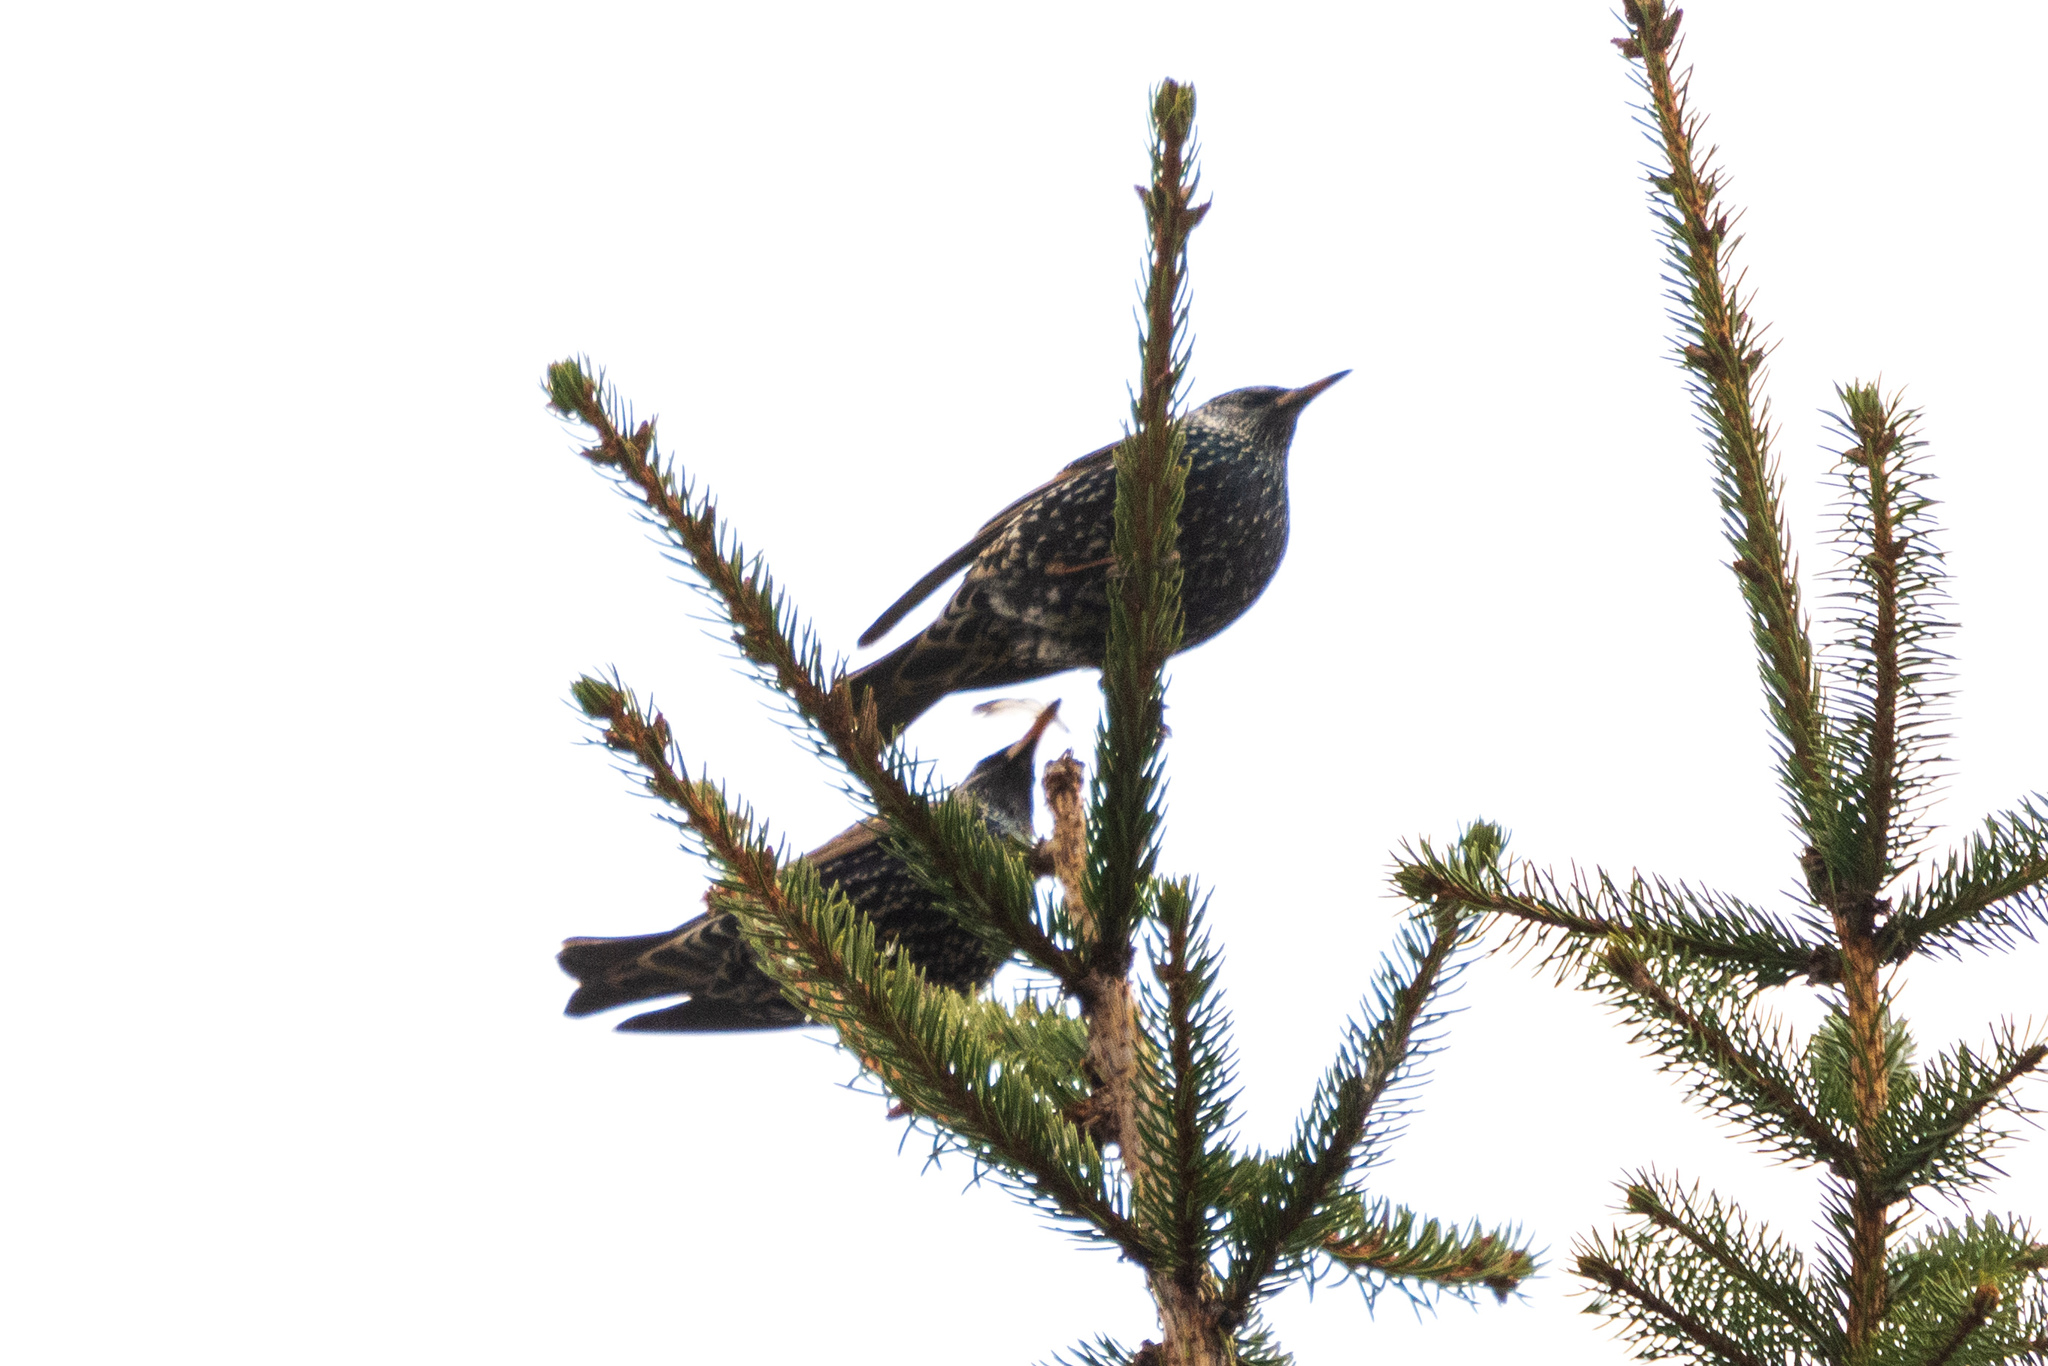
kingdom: Animalia
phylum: Chordata
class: Aves
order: Passeriformes
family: Sturnidae
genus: Sturnus
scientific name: Sturnus vulgaris
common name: Common starling
